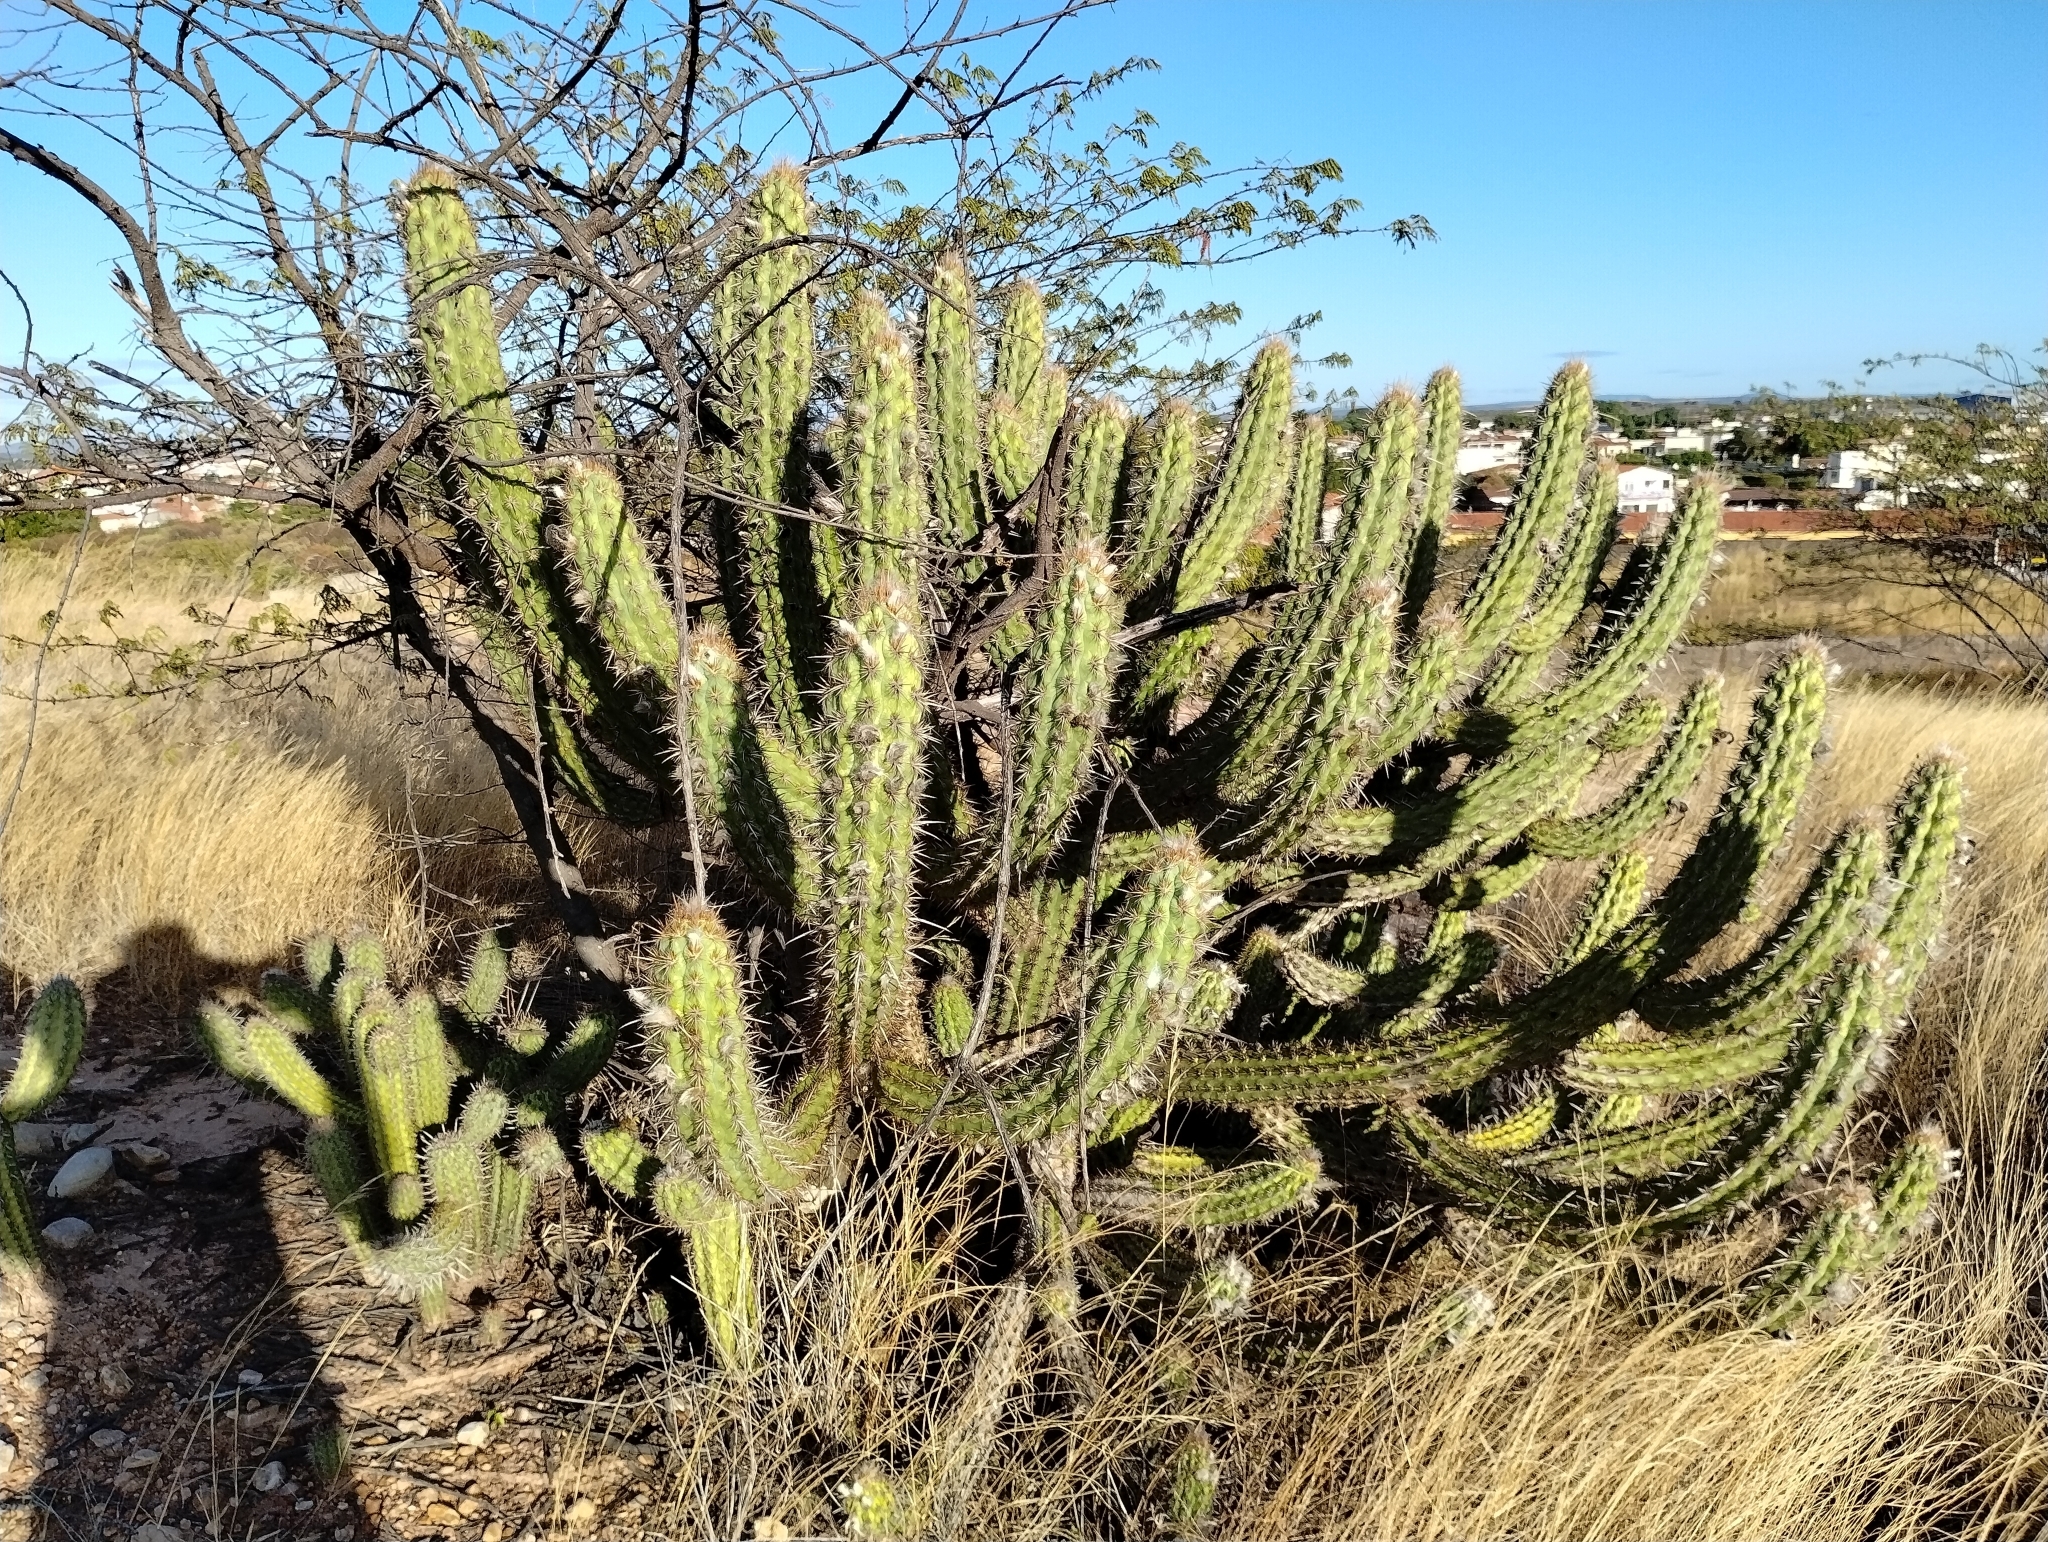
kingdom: Plantae
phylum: Tracheophyta
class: Magnoliopsida
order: Caryophyllales
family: Cactaceae
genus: Xiquexique
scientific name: Xiquexique gounellei
